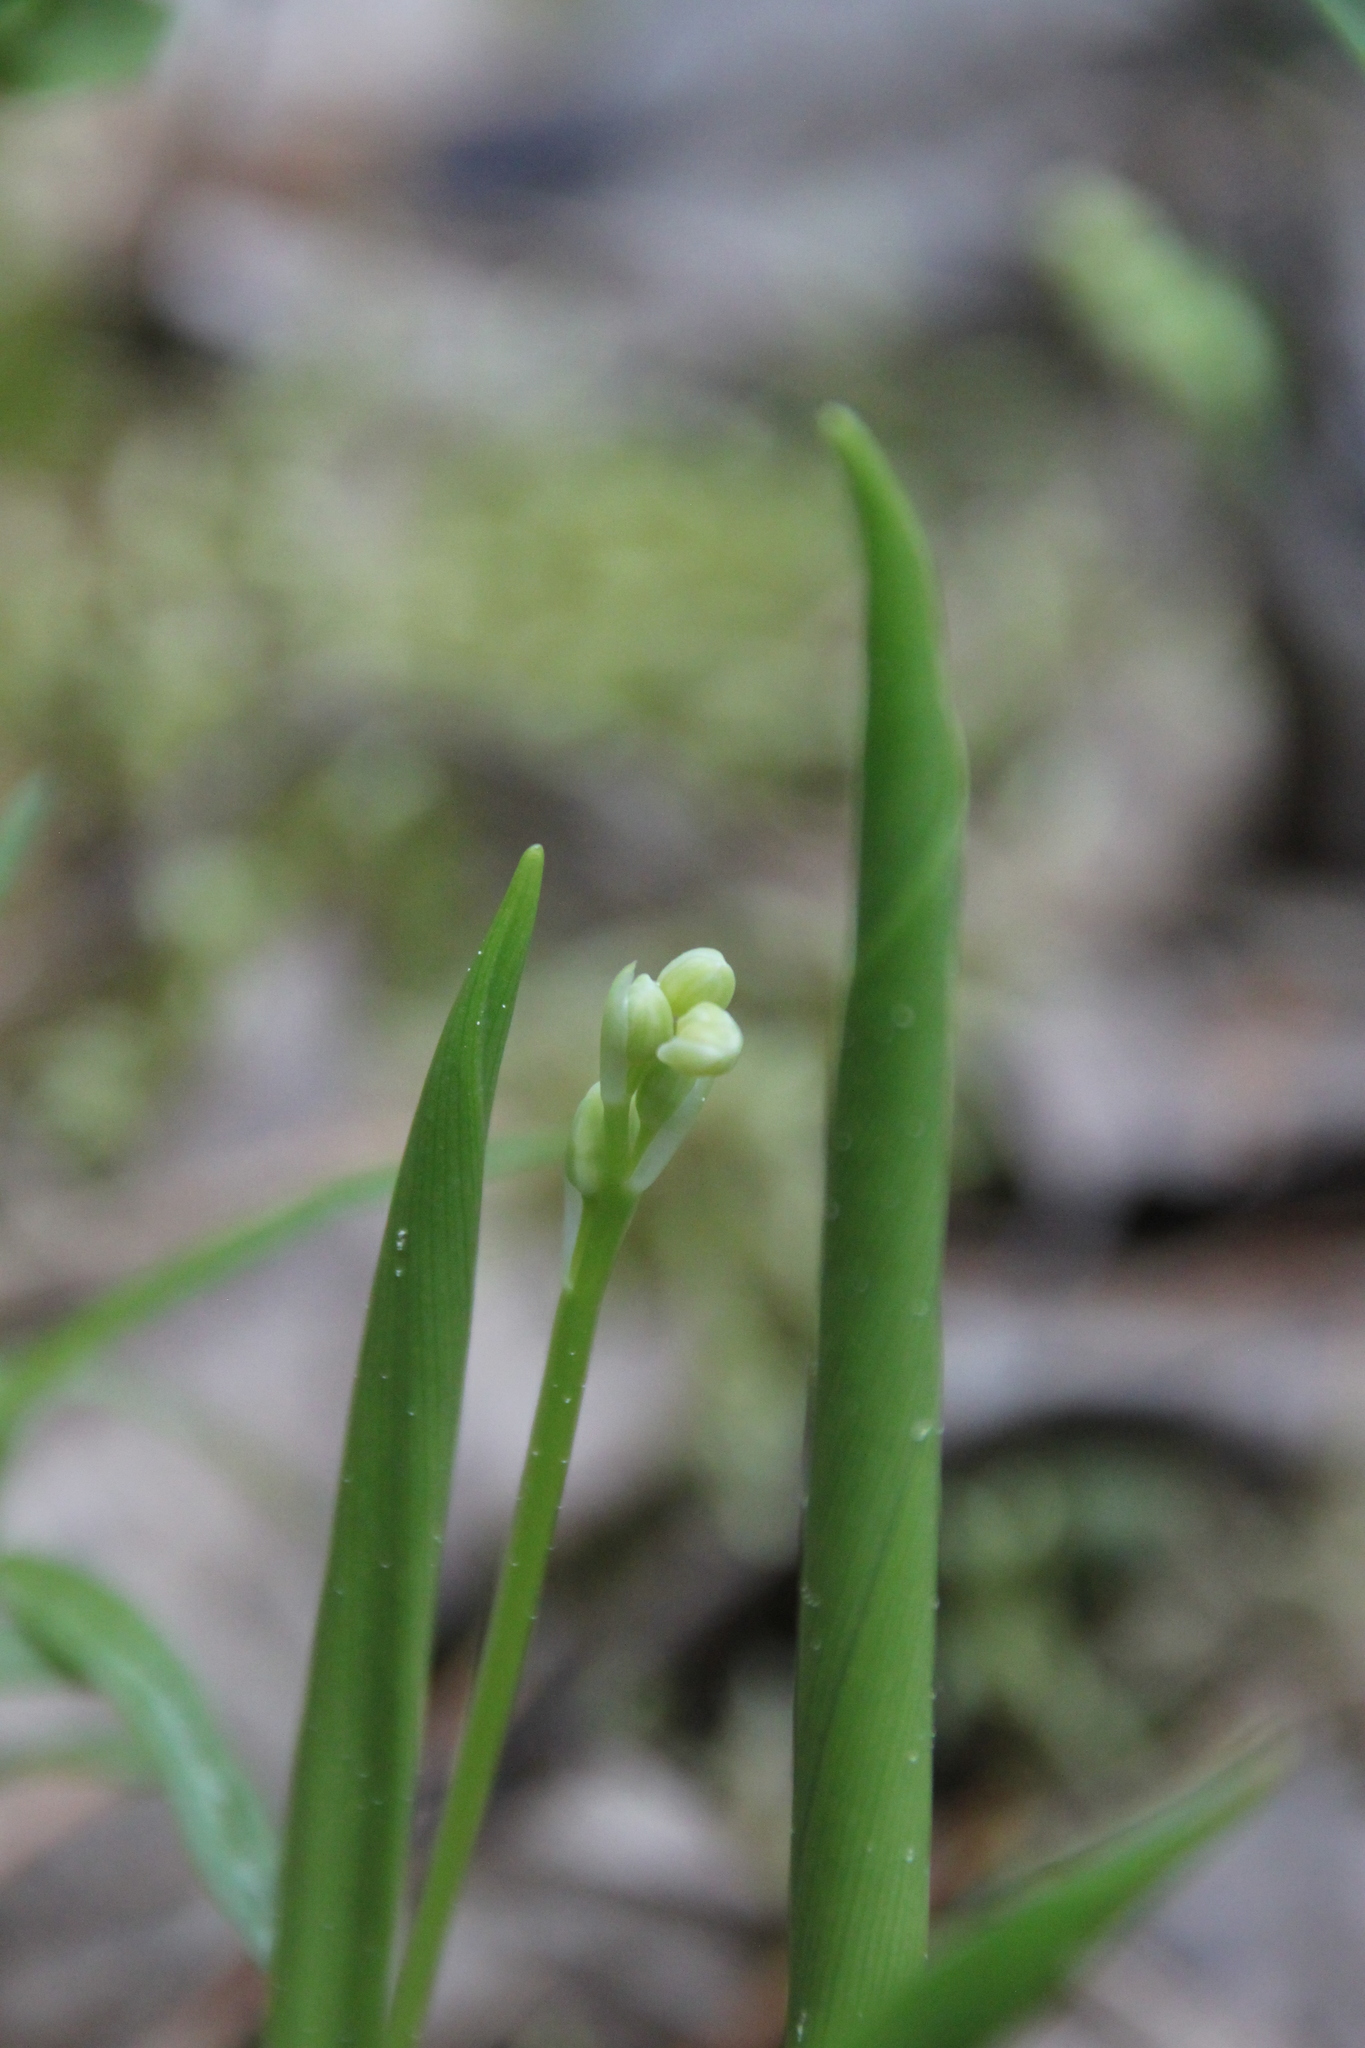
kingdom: Plantae
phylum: Tracheophyta
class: Liliopsida
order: Asparagales
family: Asparagaceae
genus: Convallaria
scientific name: Convallaria majalis
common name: Lily-of-the-valley
